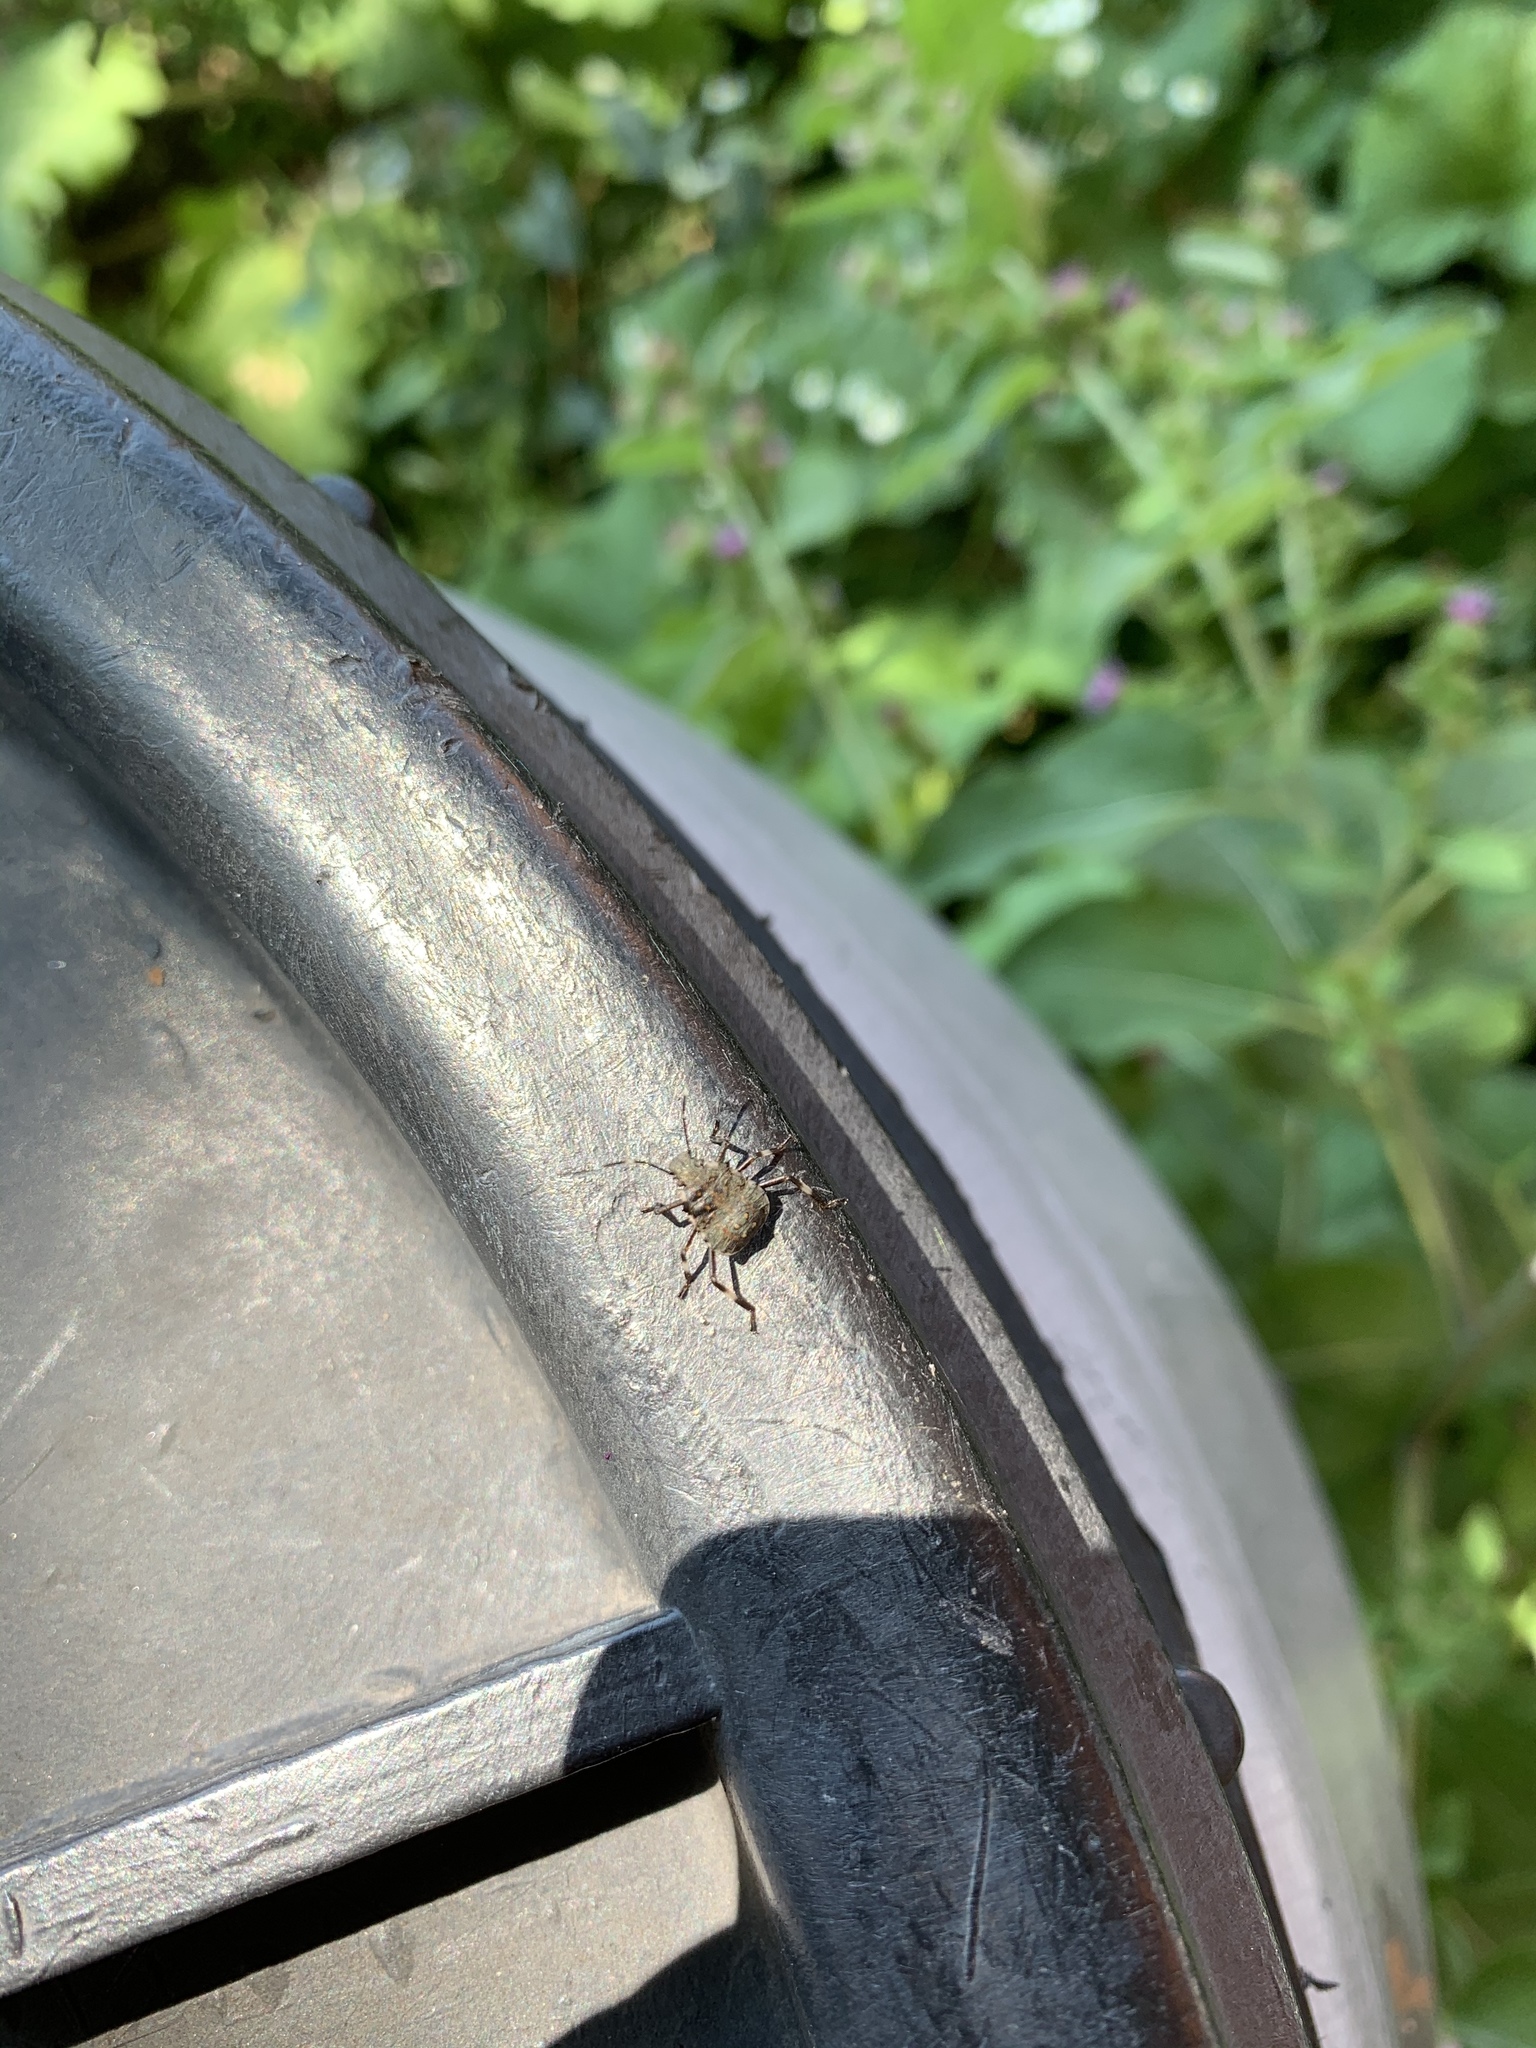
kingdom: Animalia
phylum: Arthropoda
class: Insecta
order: Hemiptera
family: Pentatomidae
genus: Halyomorpha
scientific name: Halyomorpha halys
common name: Brown marmorated stink bug
